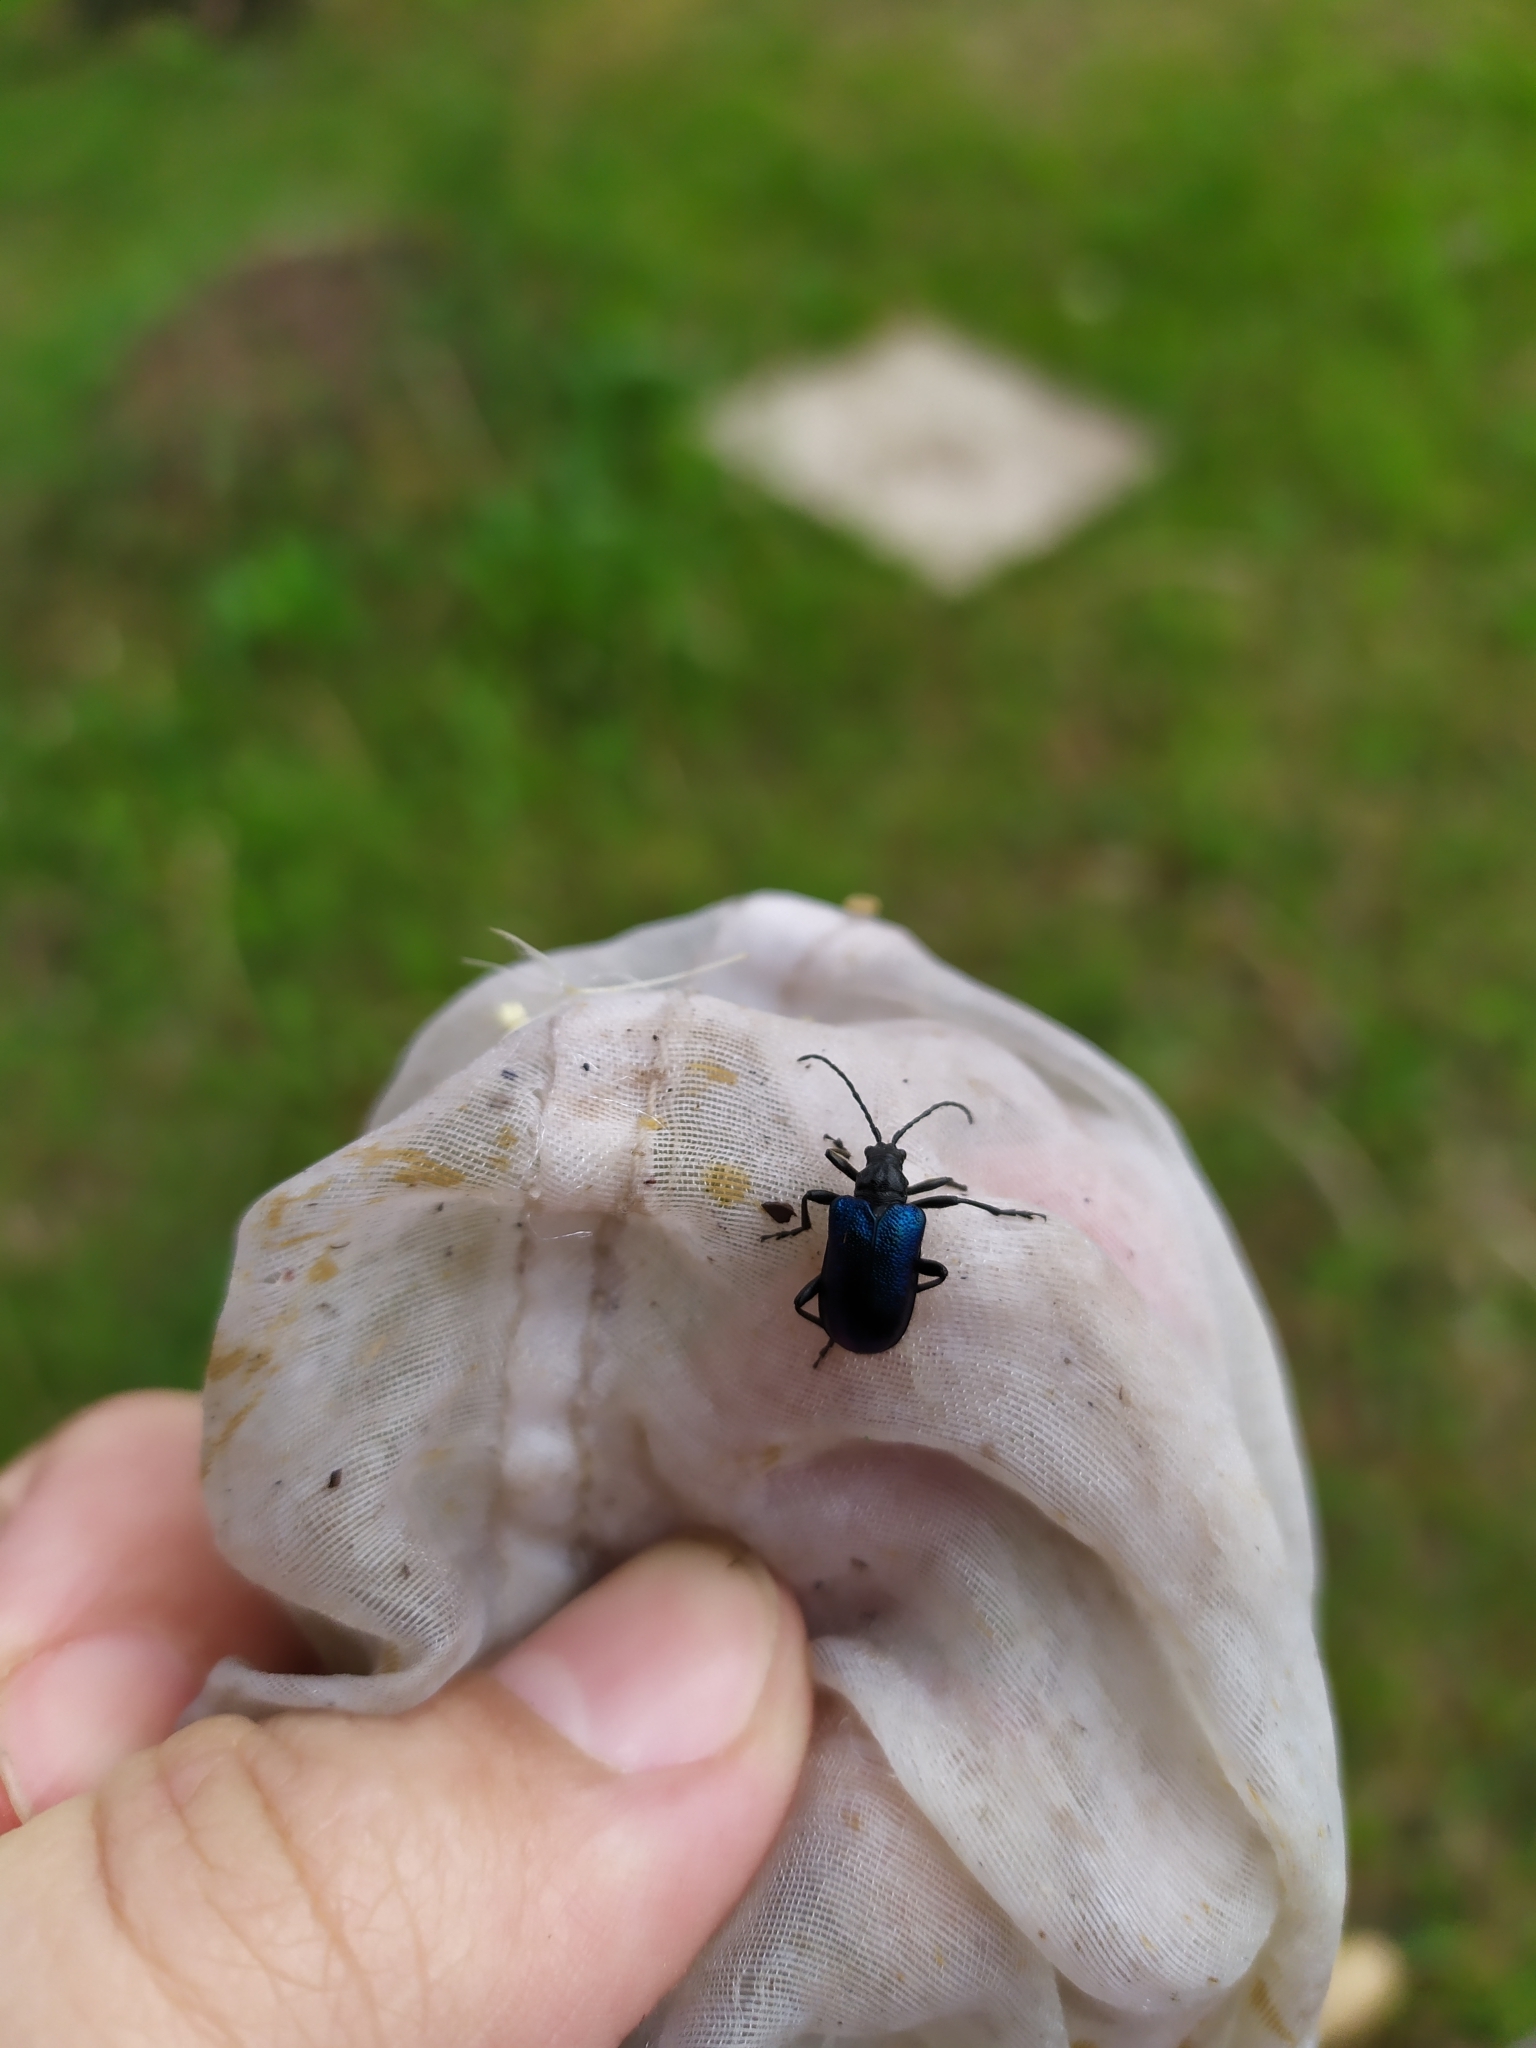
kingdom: Animalia
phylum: Arthropoda
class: Insecta
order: Coleoptera
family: Cerambycidae
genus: Gaurotes
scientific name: Gaurotes virginea
